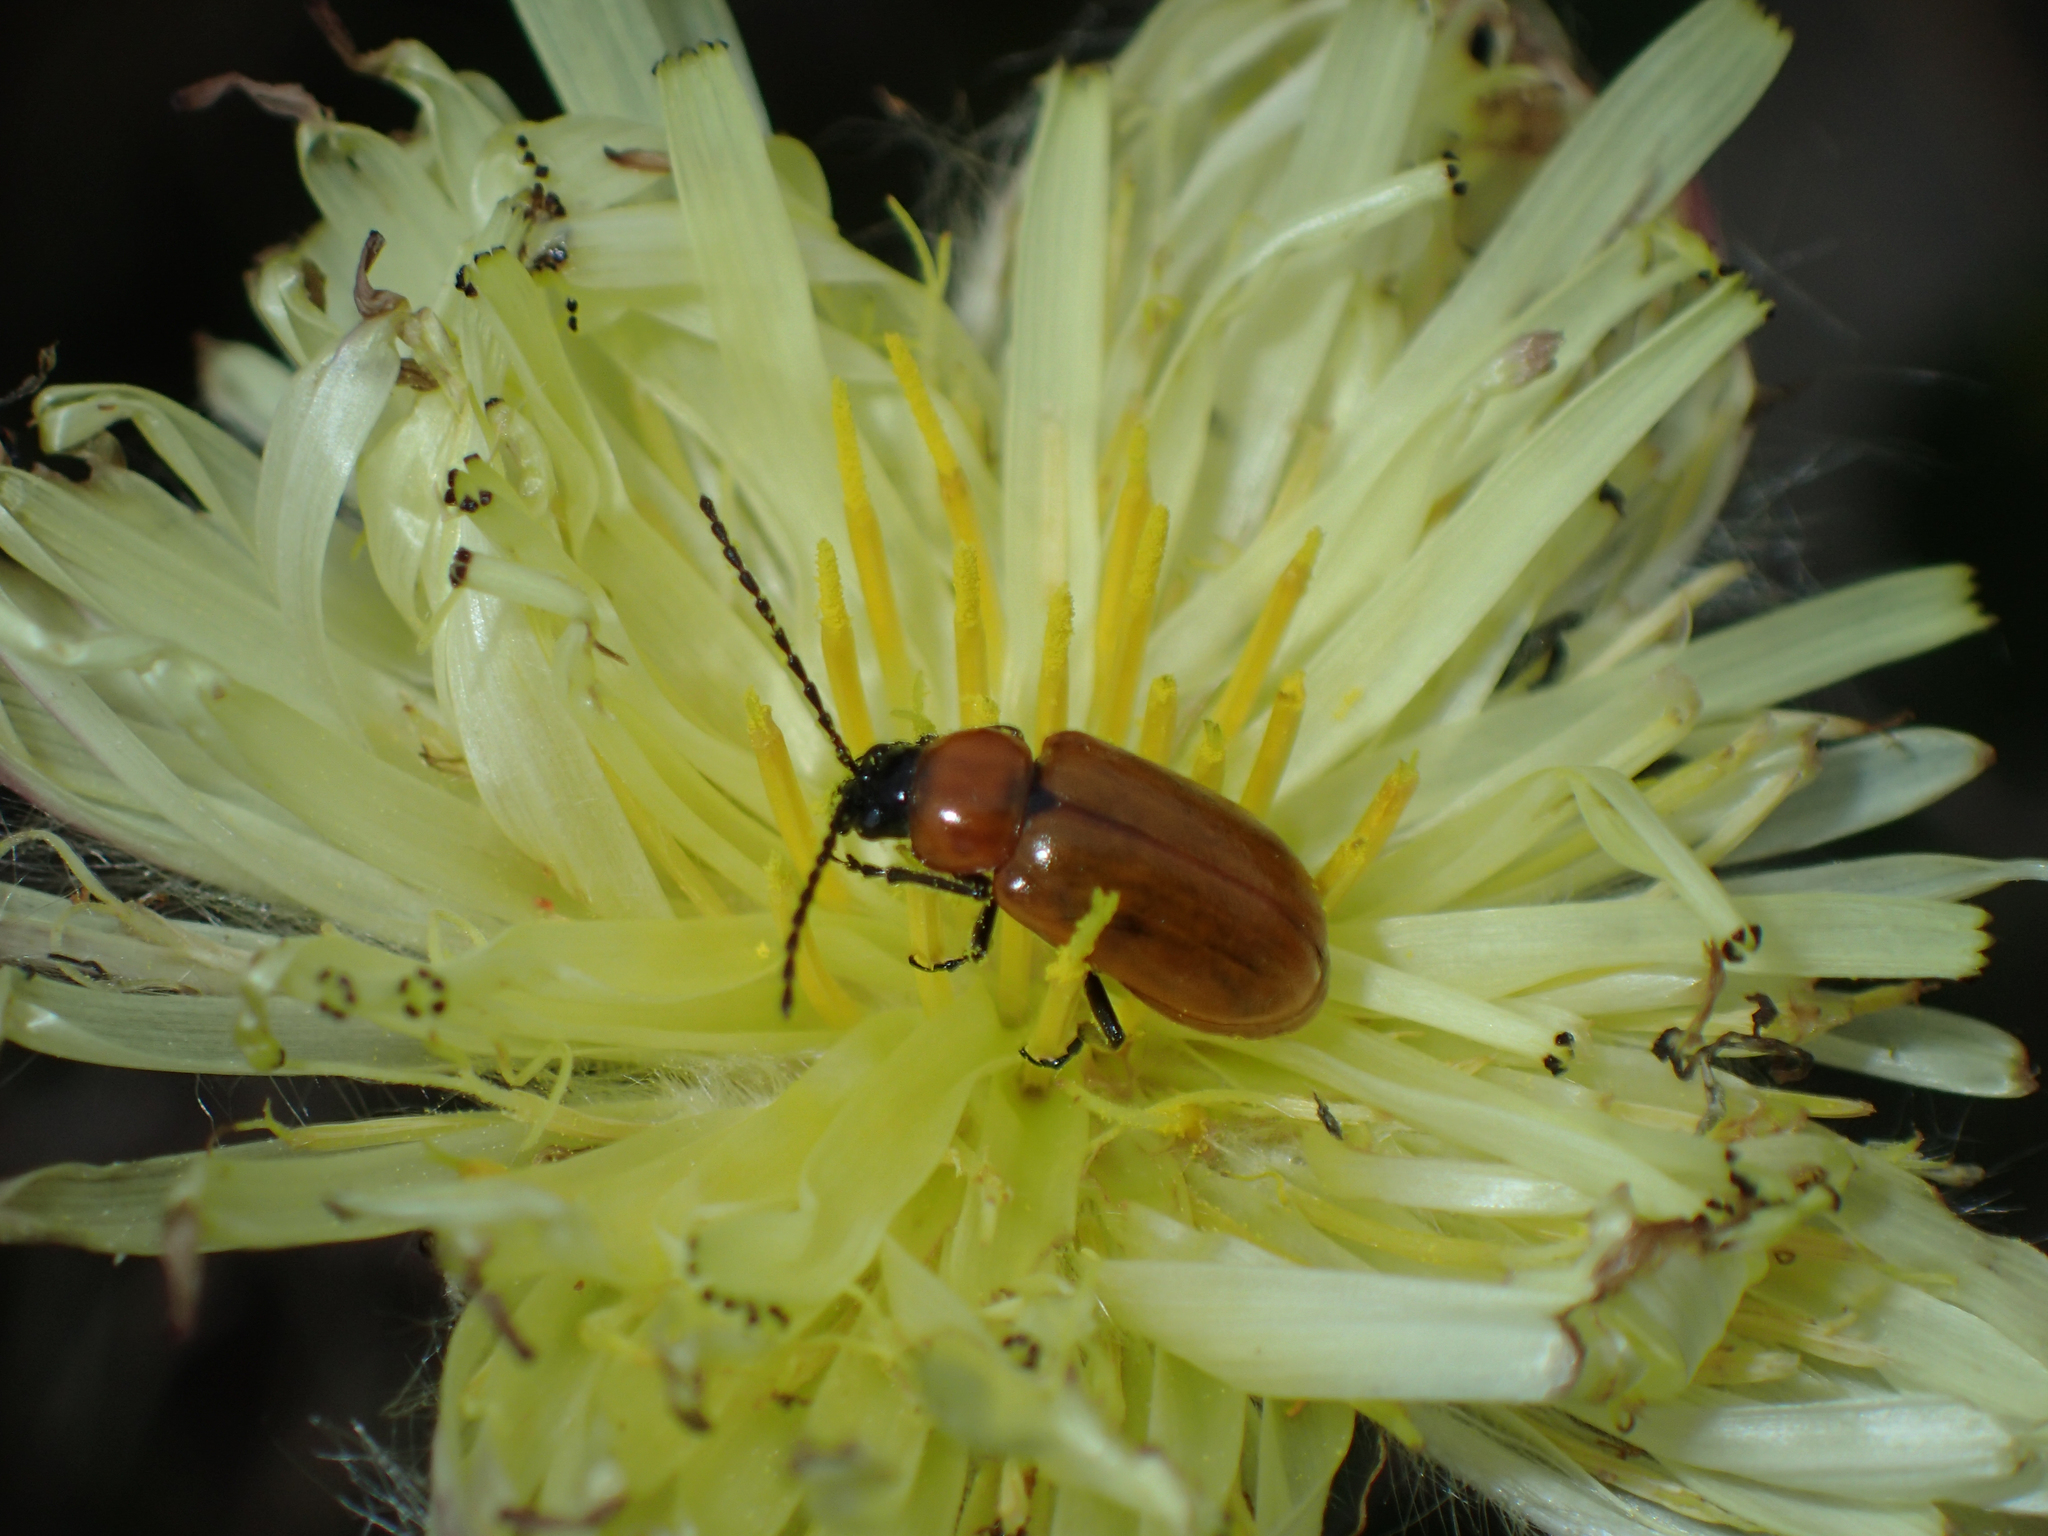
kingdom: Animalia
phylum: Arthropoda
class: Insecta
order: Coleoptera
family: Chrysomelidae
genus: Exosoma
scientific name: Exosoma lusitanicum
